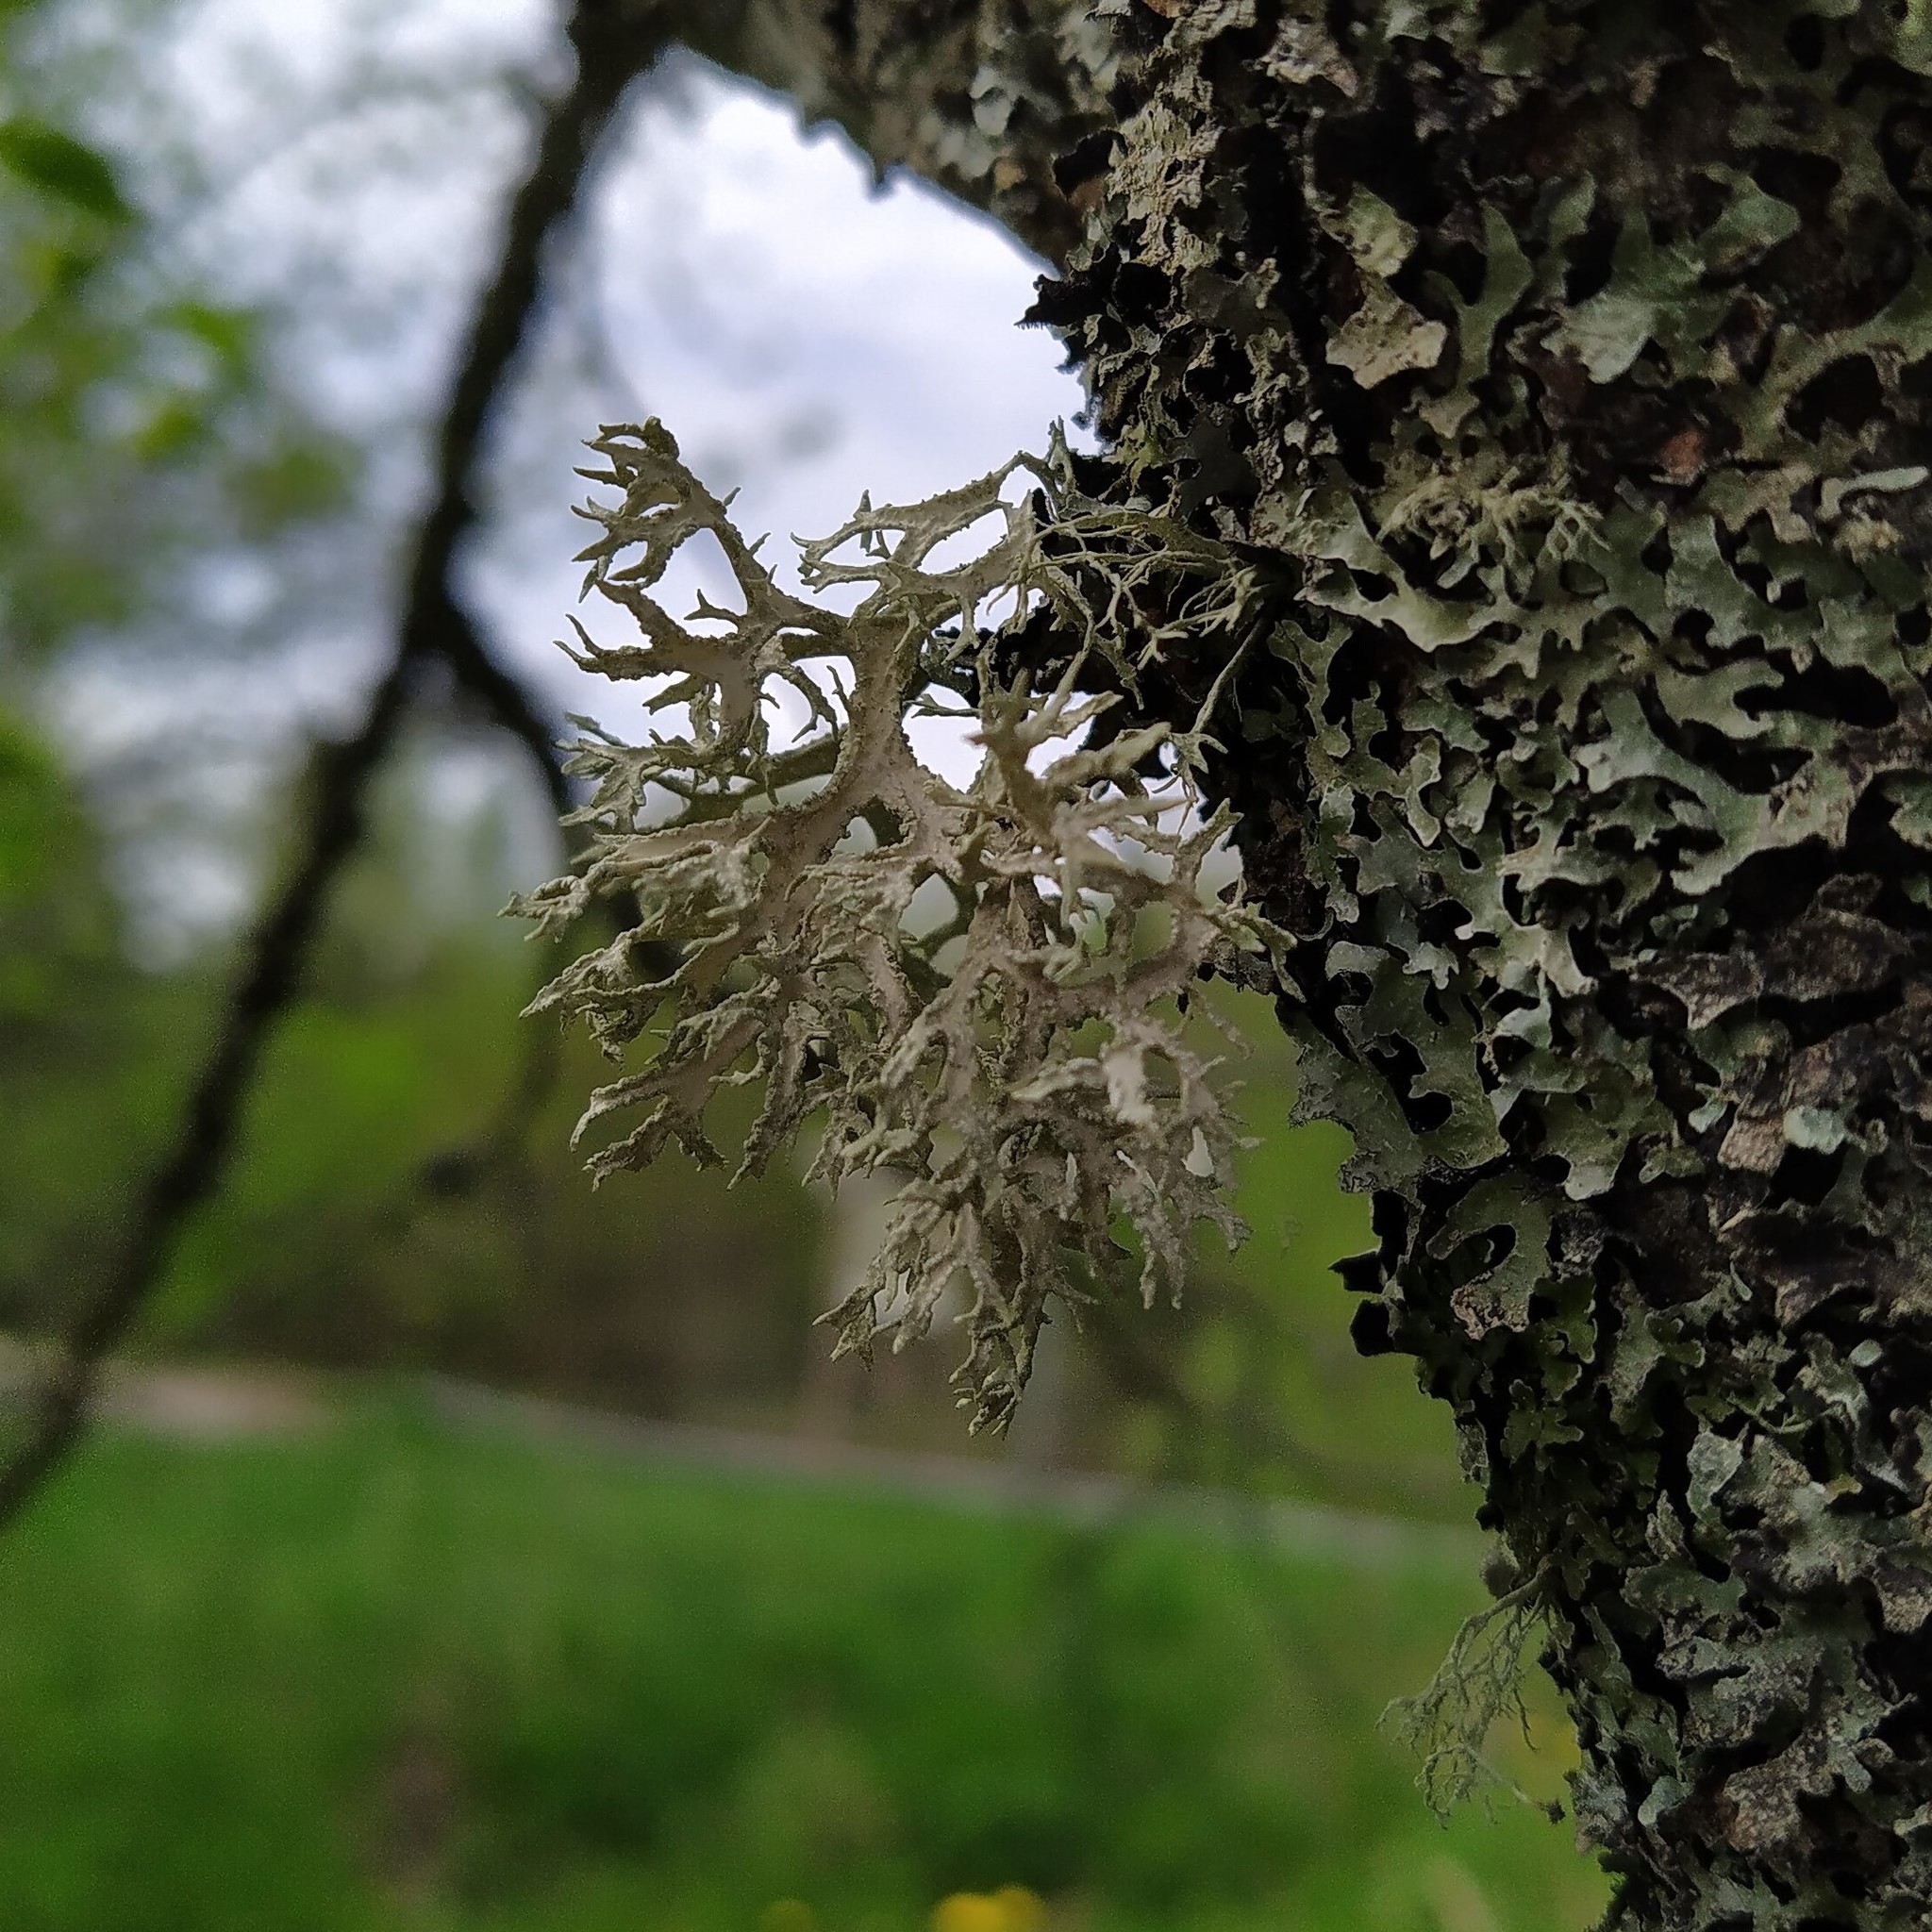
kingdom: Fungi
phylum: Ascomycota
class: Lecanoromycetes
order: Lecanorales
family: Parmeliaceae
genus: Evernia
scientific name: Evernia prunastri
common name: Oak moss
